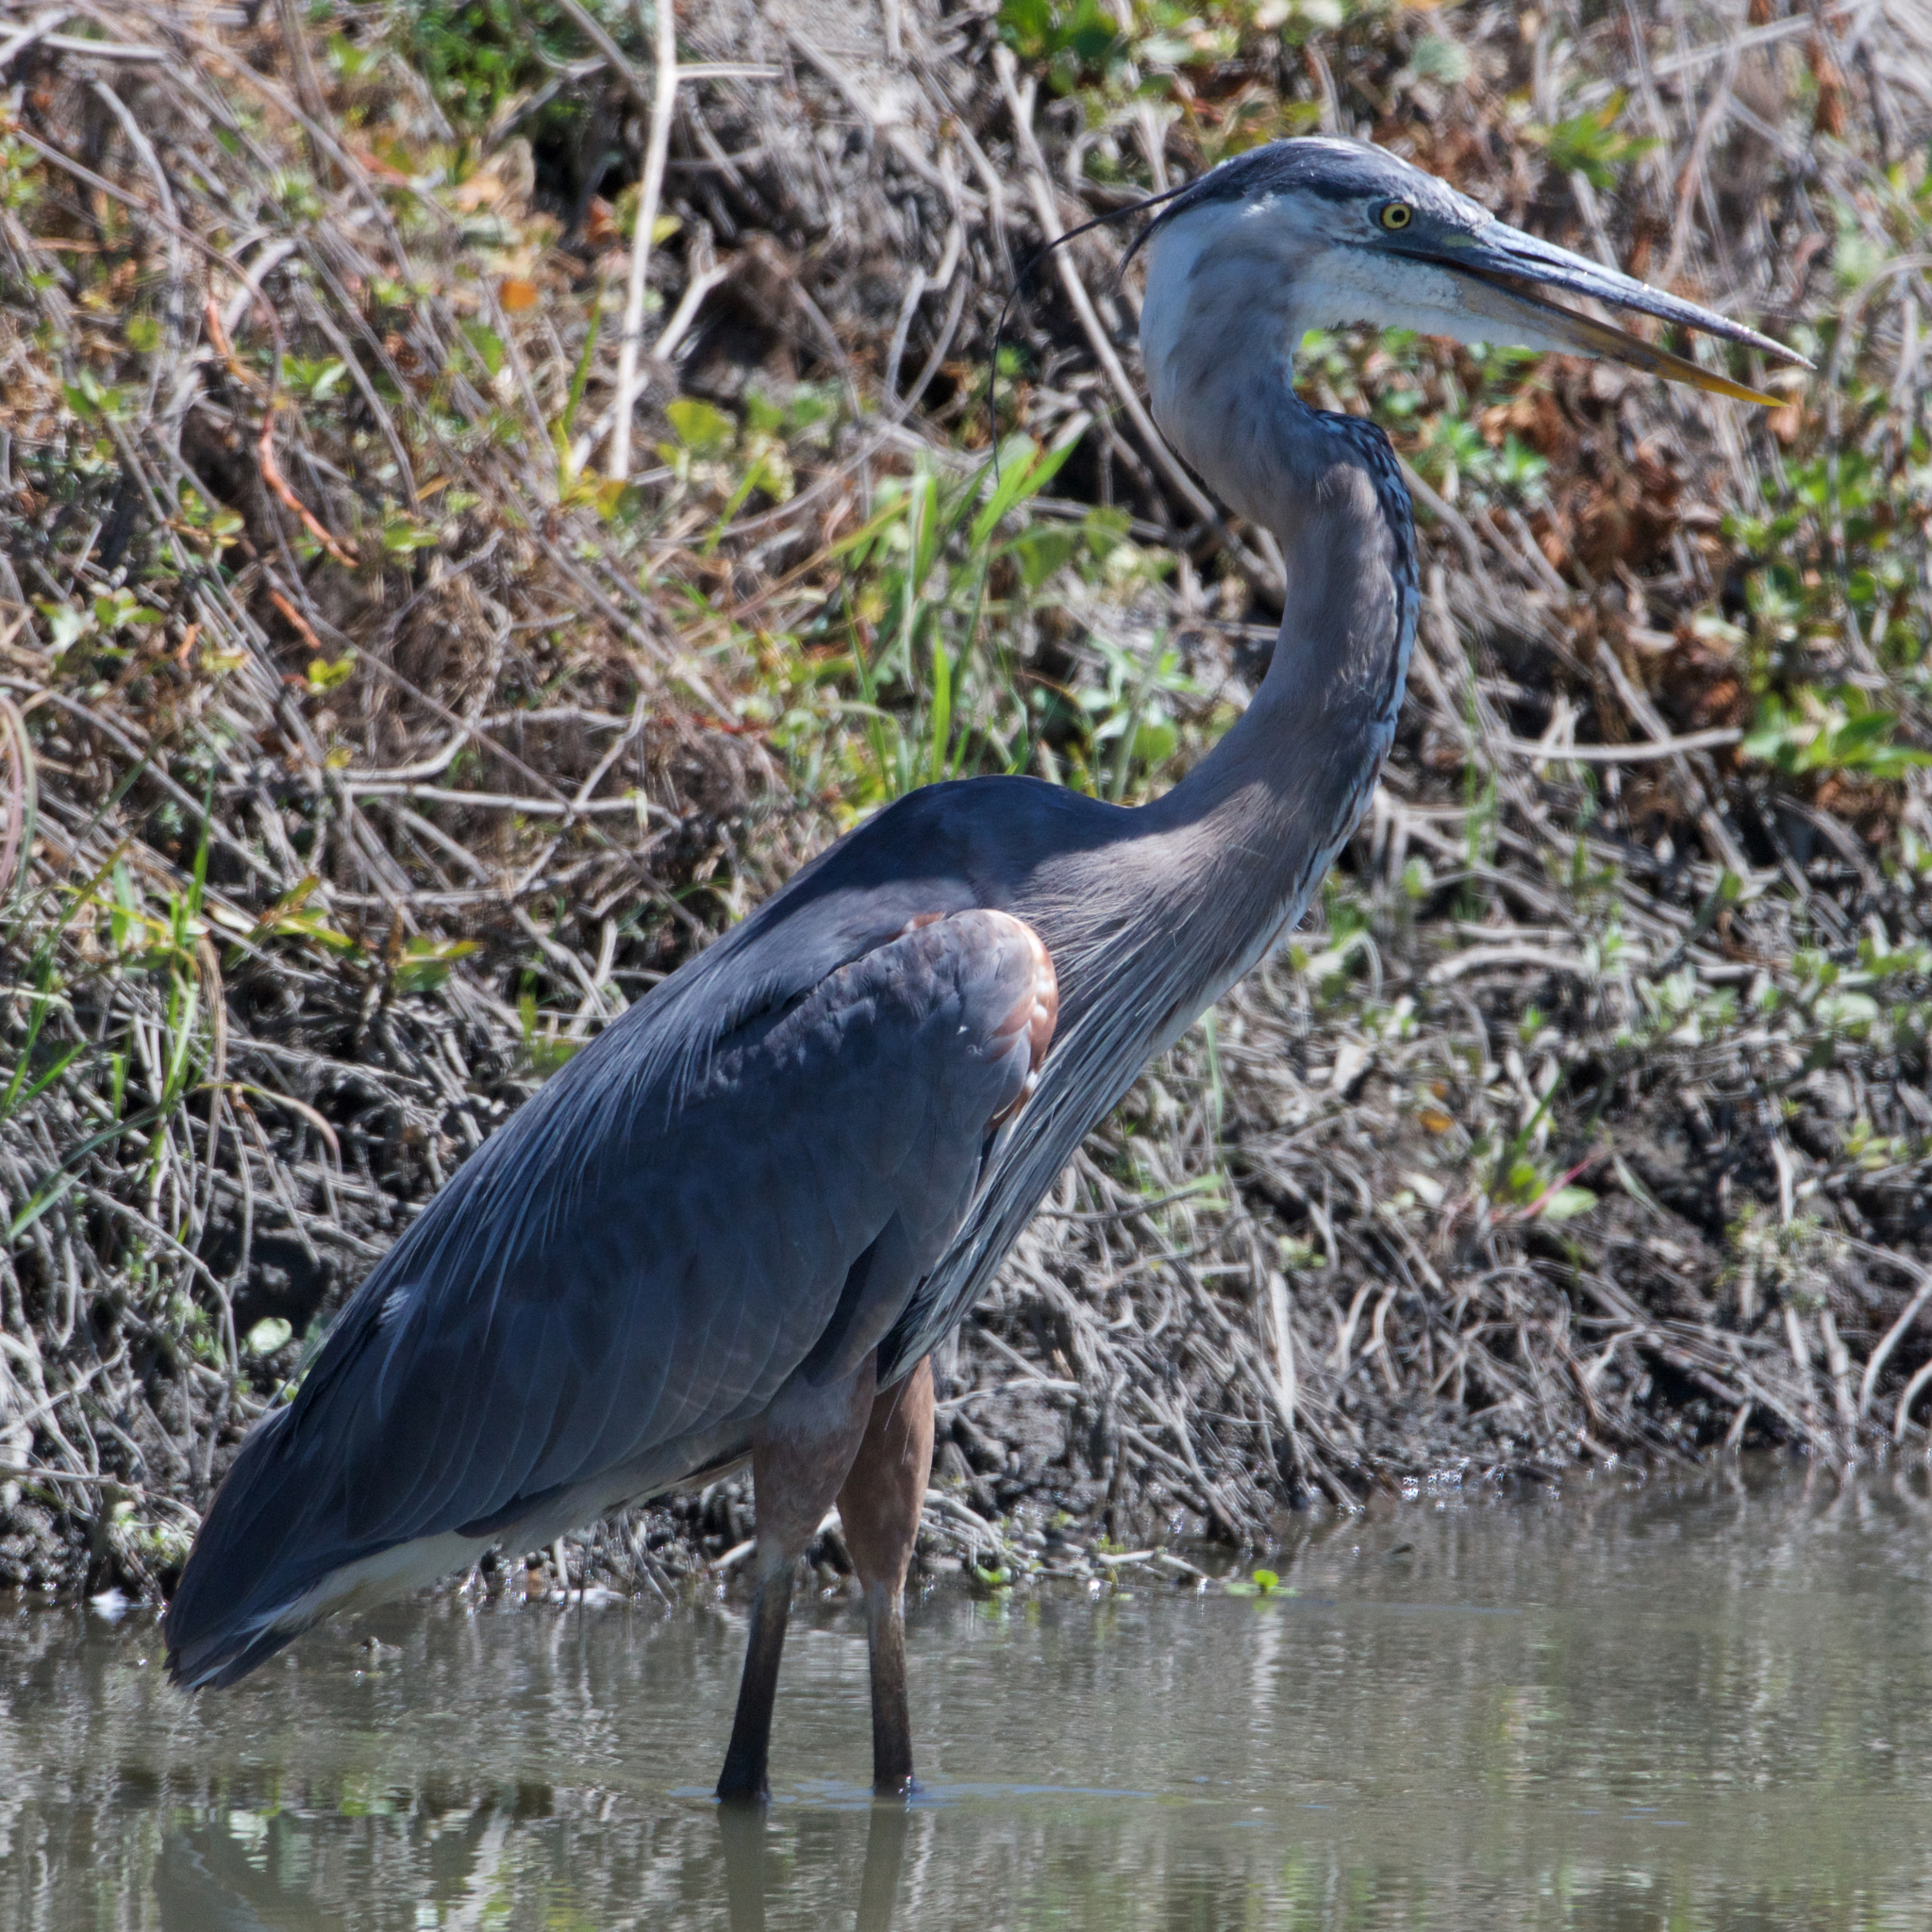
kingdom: Animalia
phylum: Chordata
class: Aves
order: Pelecaniformes
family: Ardeidae
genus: Ardea
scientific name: Ardea herodias
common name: Great blue heron
